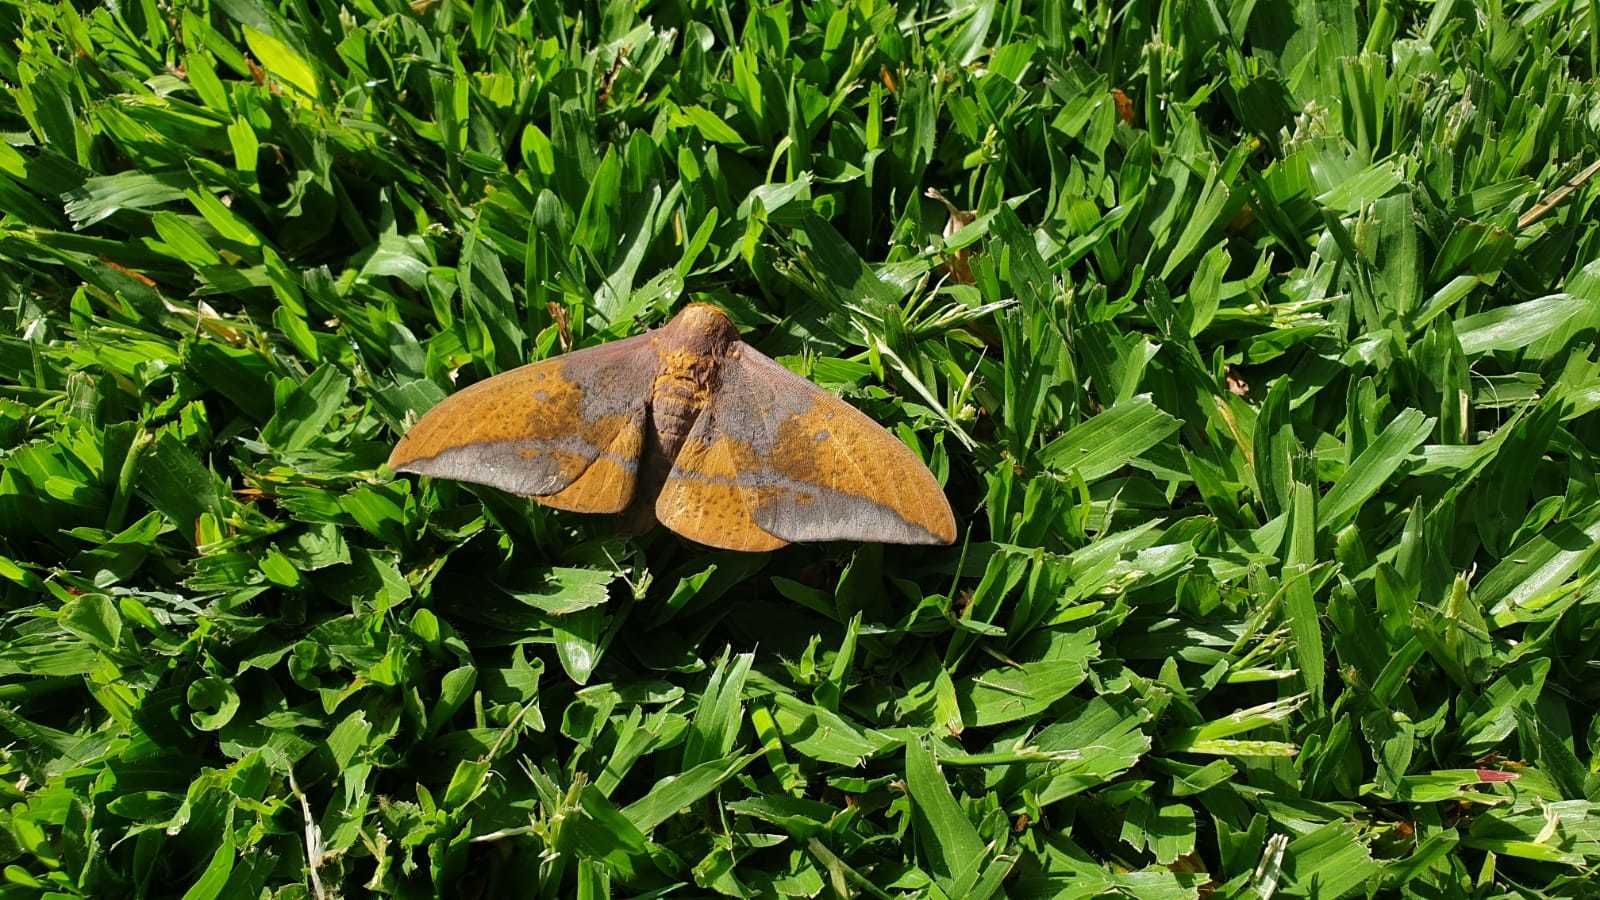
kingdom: Animalia
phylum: Arthropoda
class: Insecta
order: Lepidoptera
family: Saturniidae
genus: Eacles
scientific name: Eacles imperialis
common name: Imperial moth
